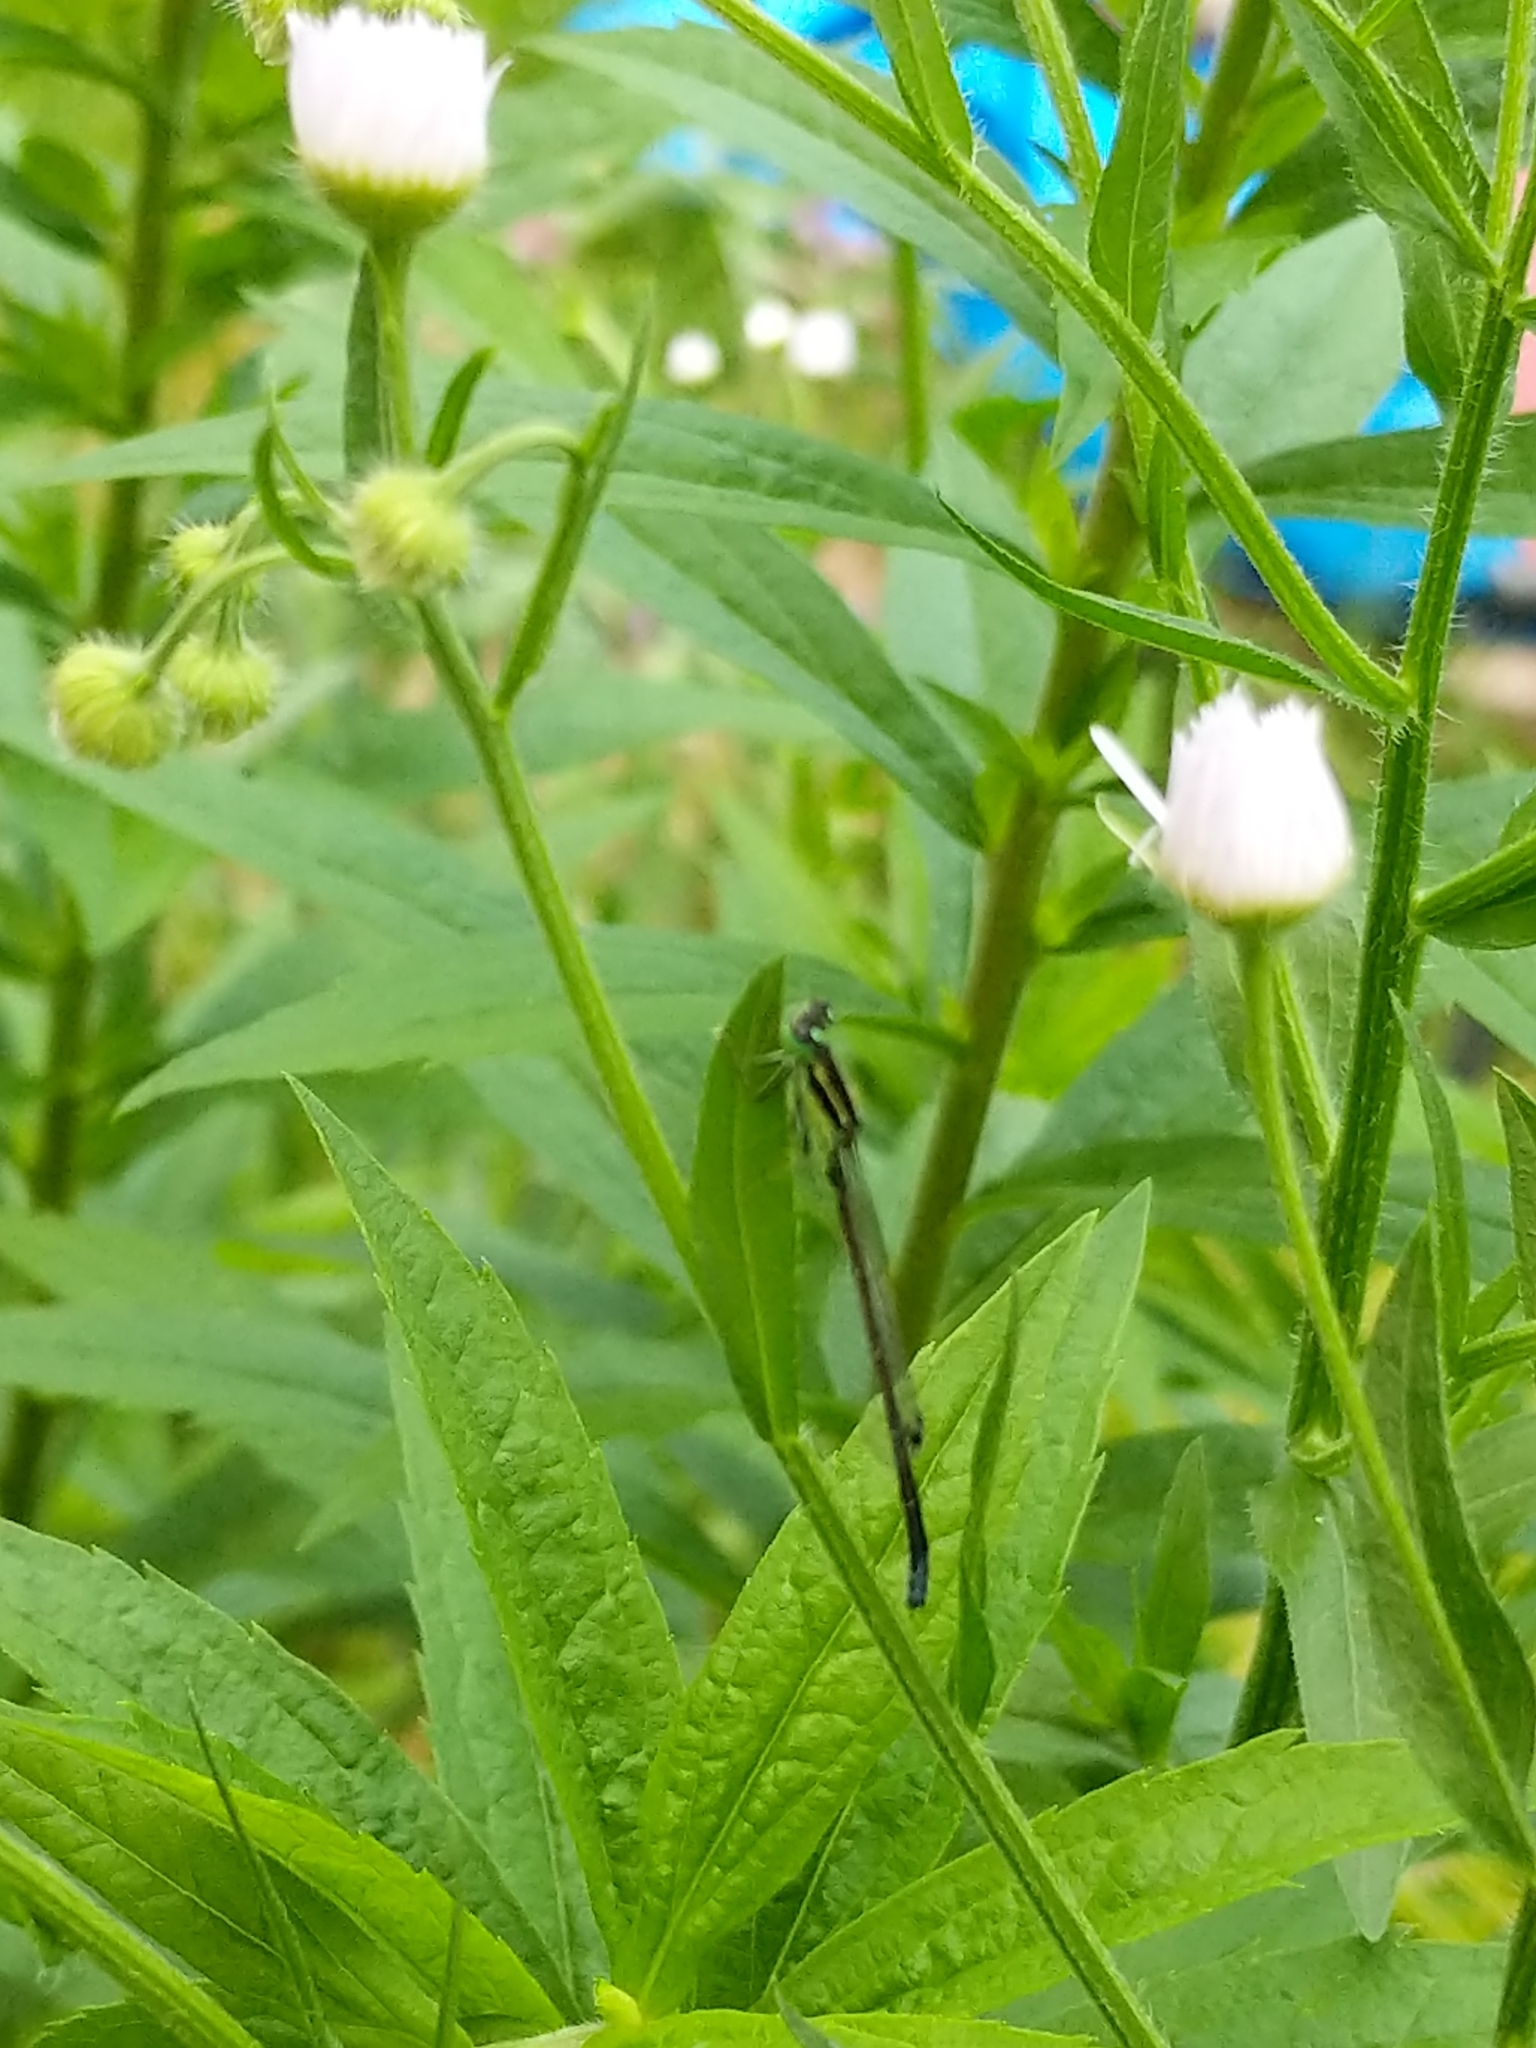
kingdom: Animalia
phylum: Arthropoda
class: Insecta
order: Odonata
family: Coenagrionidae
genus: Ischnura
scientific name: Ischnura verticalis
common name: Eastern forktail
